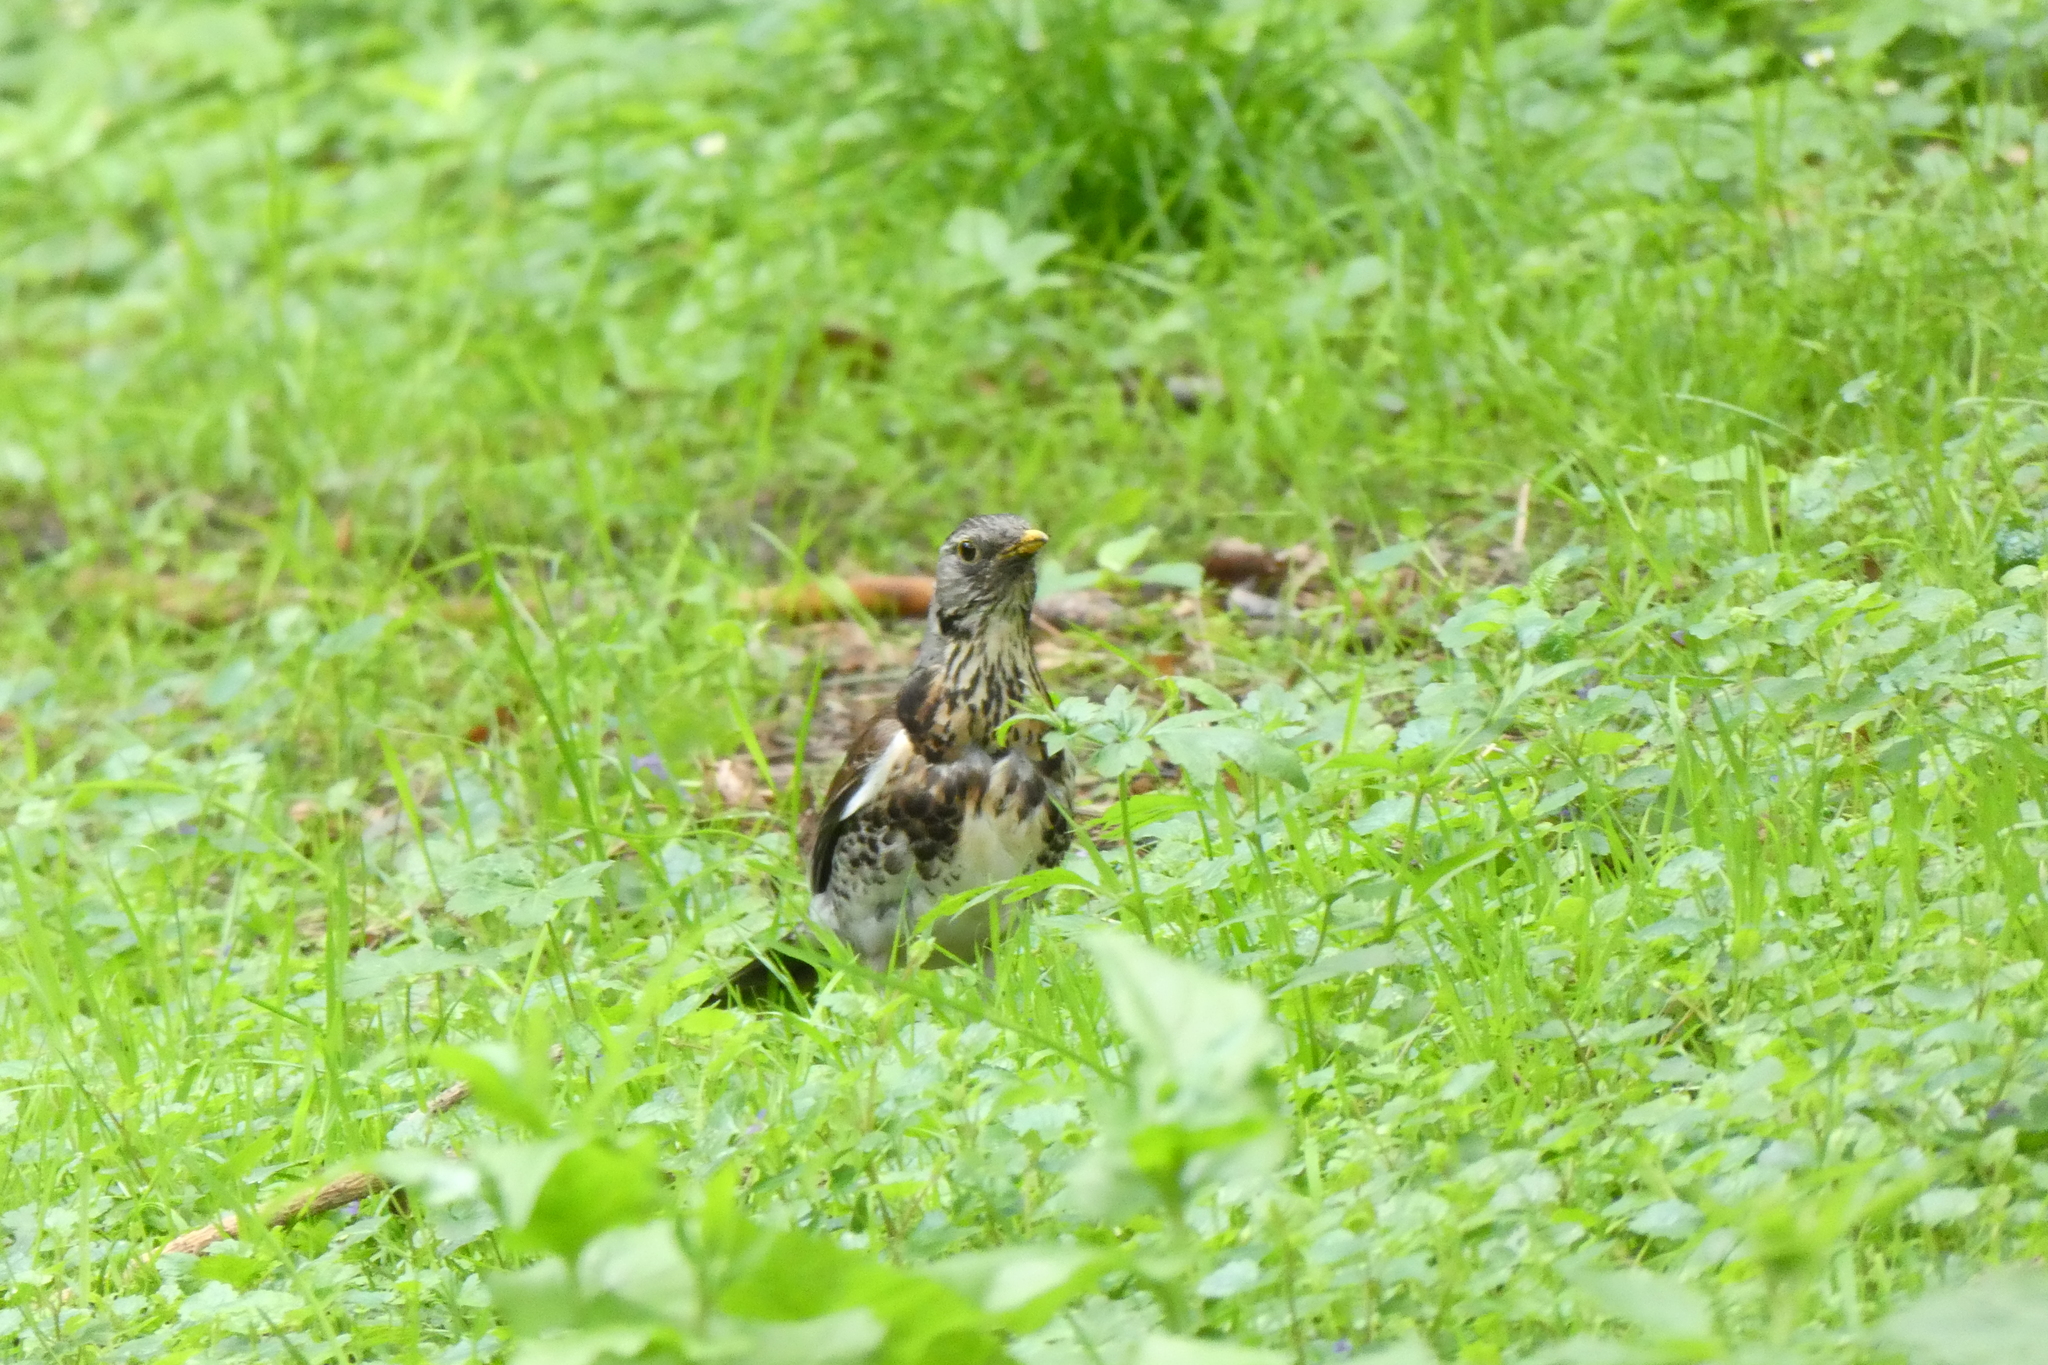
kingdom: Animalia
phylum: Chordata
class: Aves
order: Passeriformes
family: Turdidae
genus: Turdus
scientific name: Turdus pilaris
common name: Fieldfare
